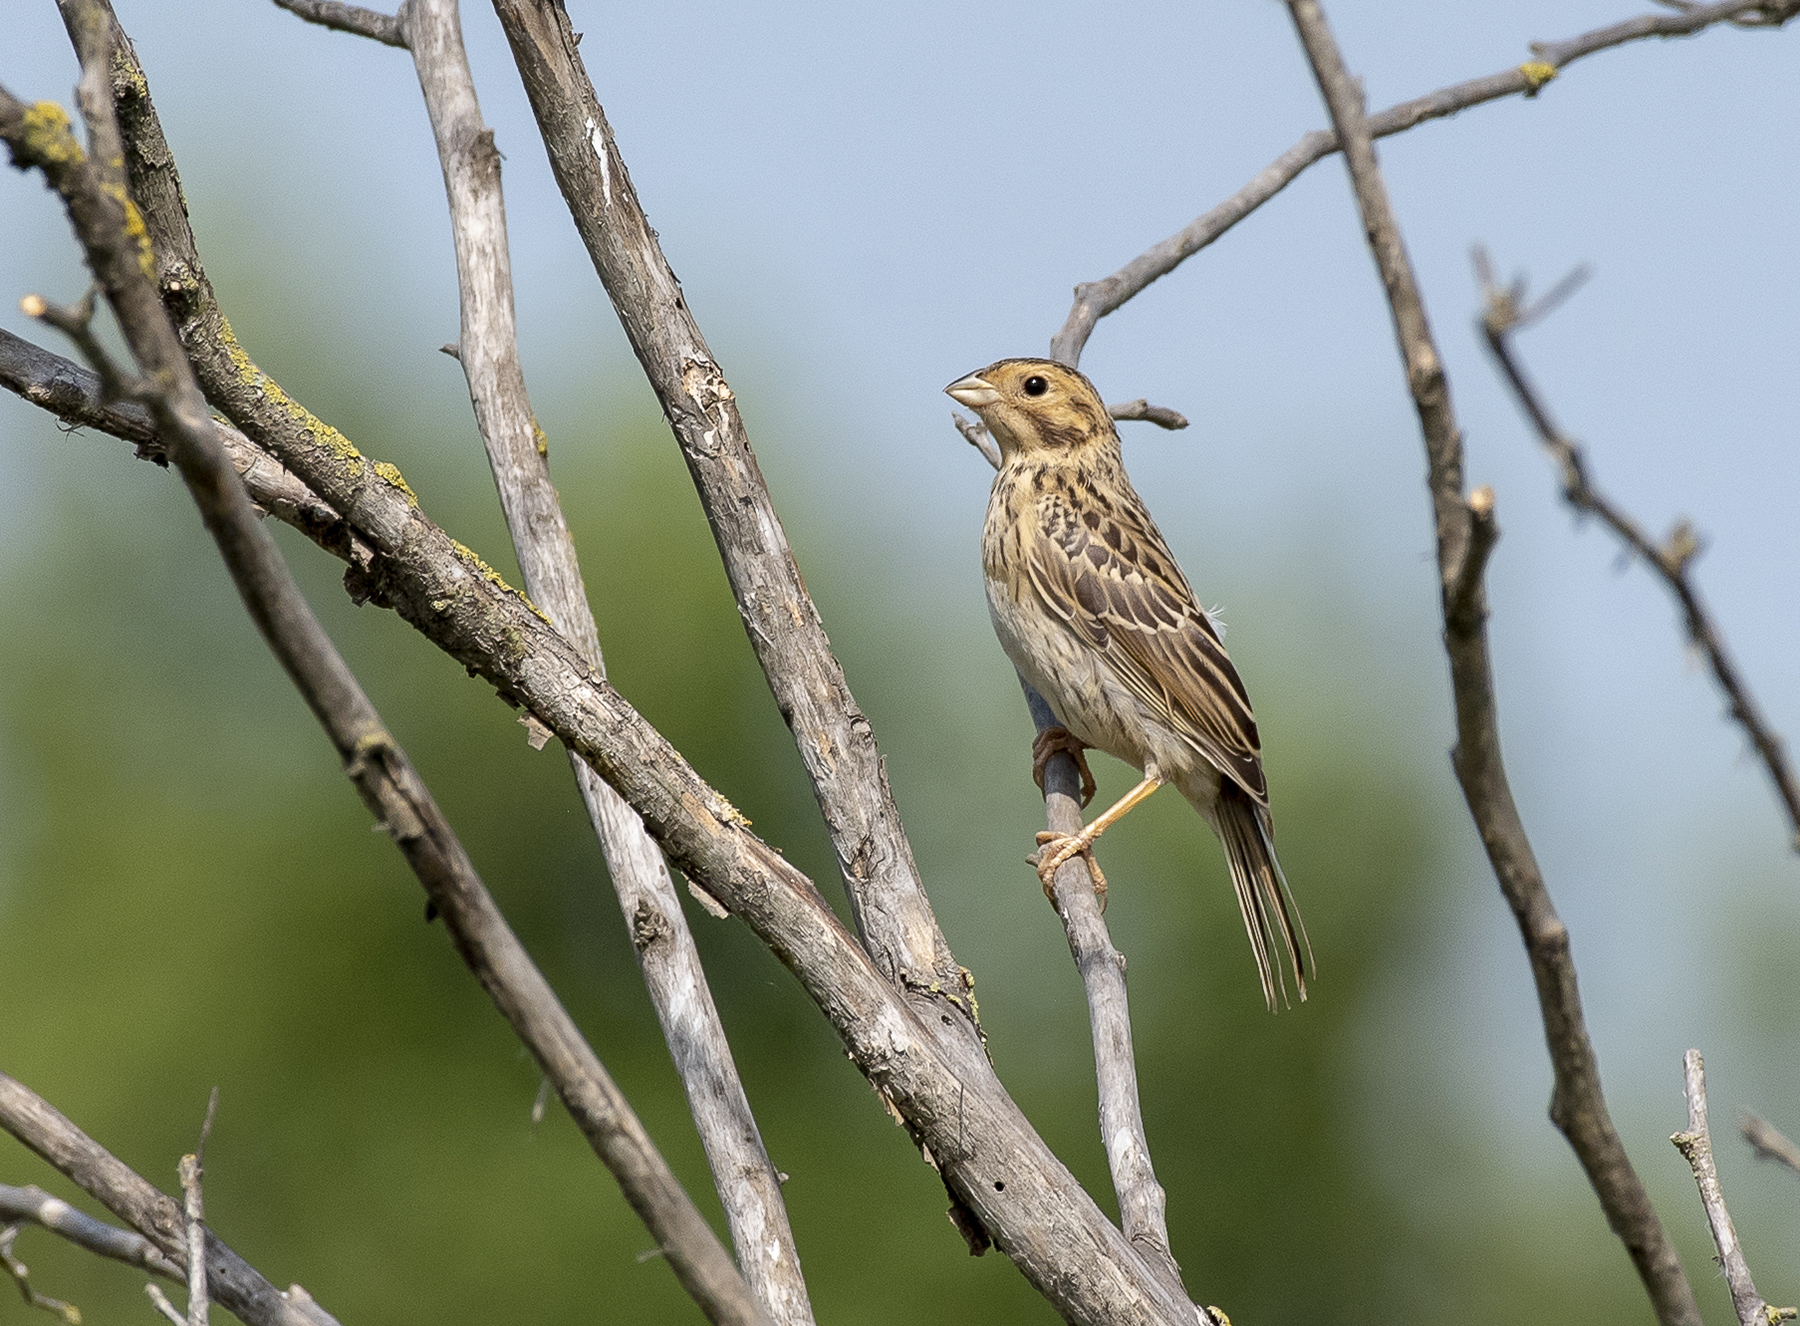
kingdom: Animalia
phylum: Chordata
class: Aves
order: Passeriformes
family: Emberizidae
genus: Emberiza
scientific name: Emberiza calandra
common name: Corn bunting
